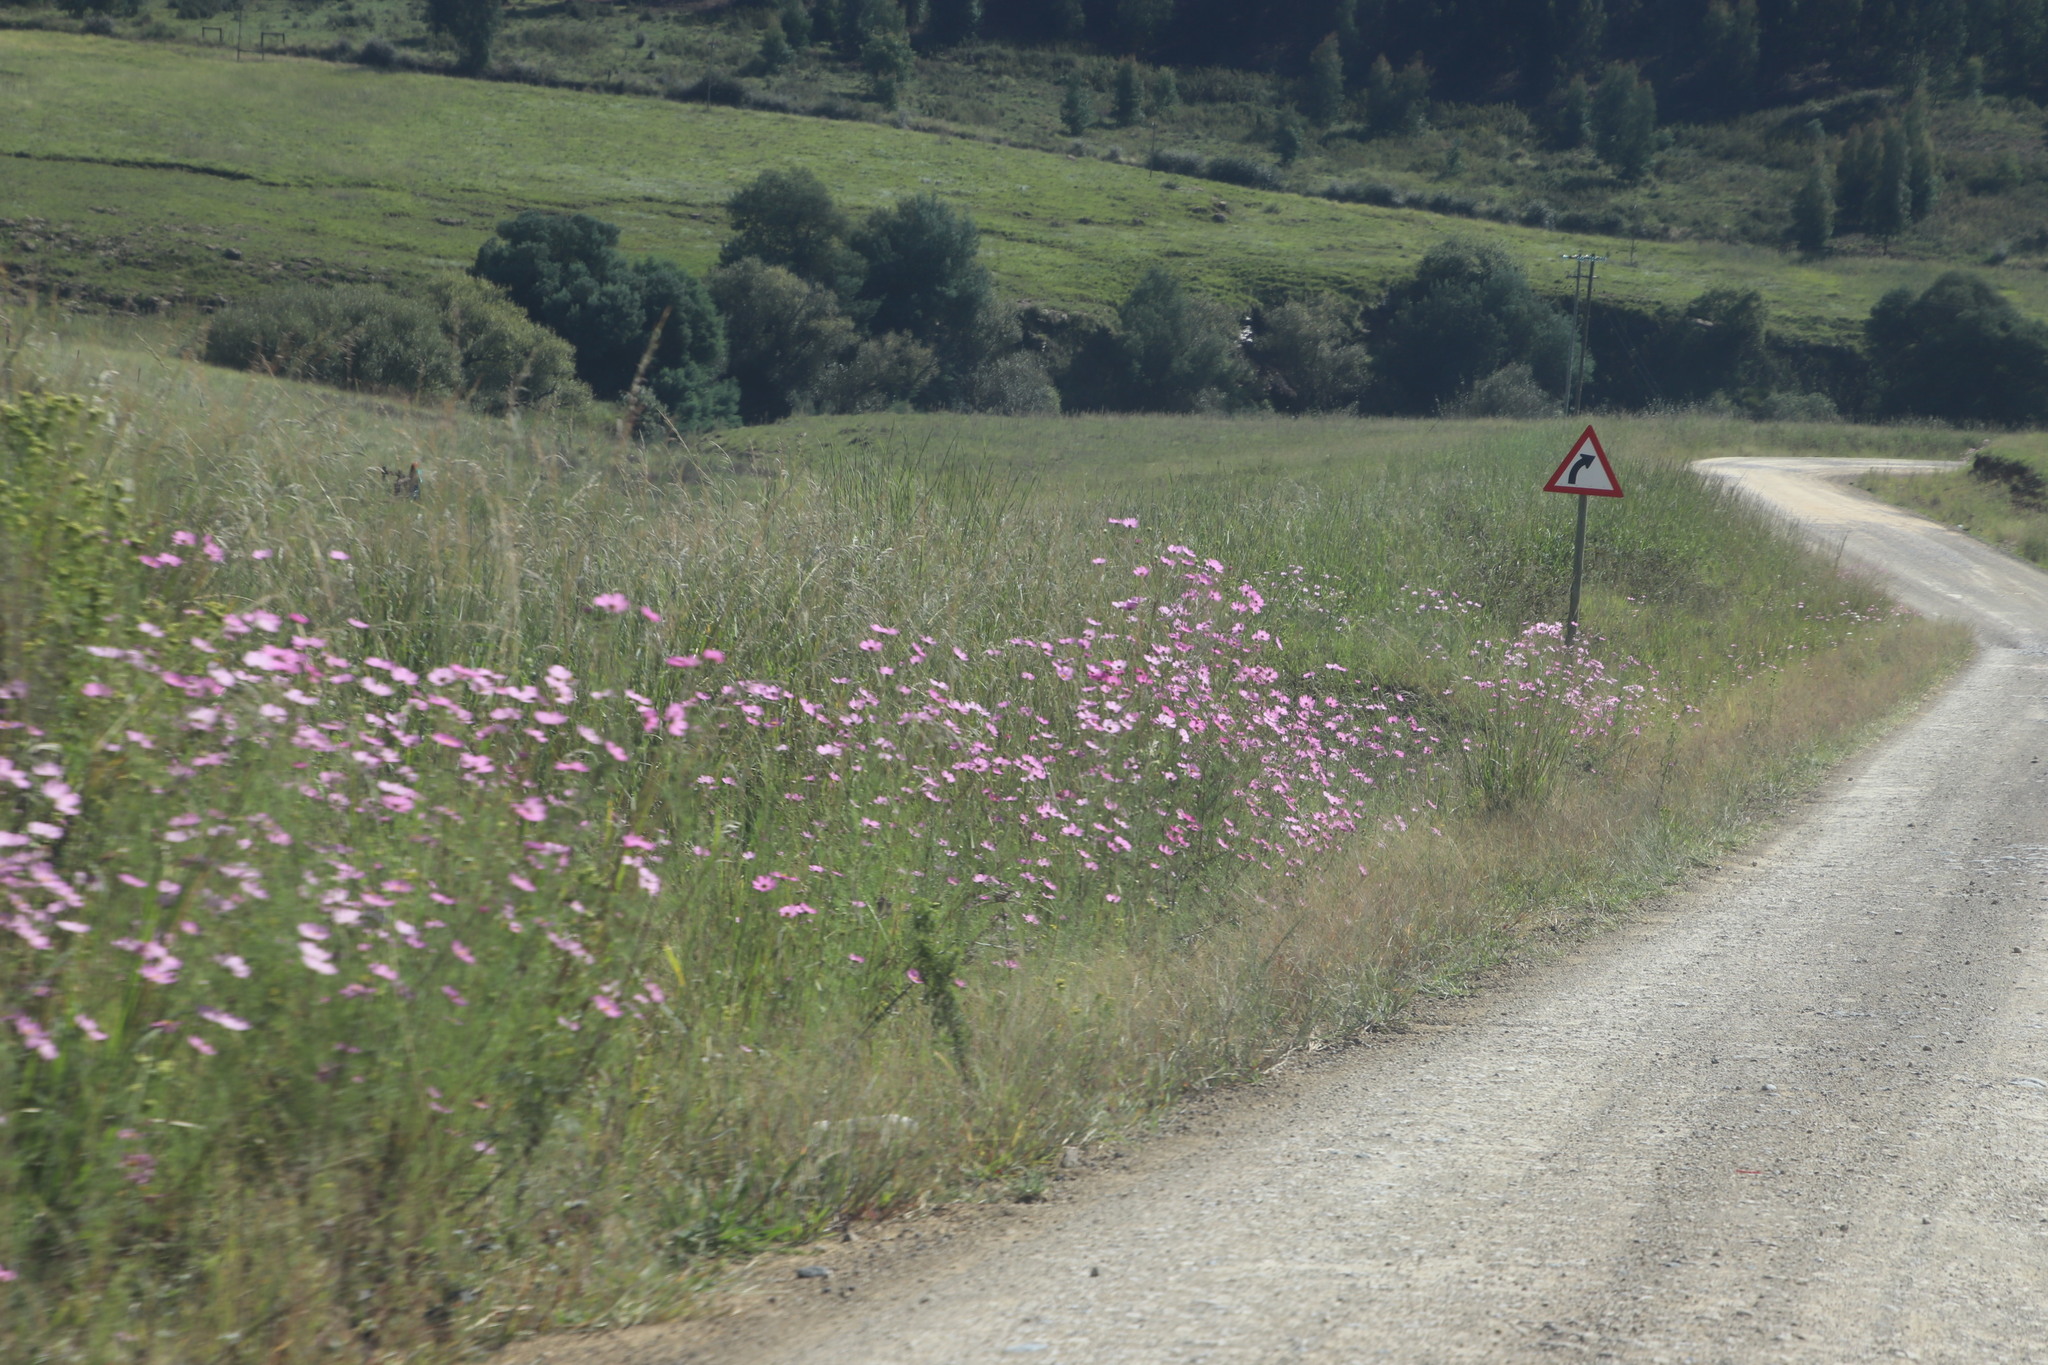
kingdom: Plantae
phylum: Tracheophyta
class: Magnoliopsida
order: Asterales
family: Asteraceae
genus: Cosmos
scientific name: Cosmos bipinnatus
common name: Garden cosmos
